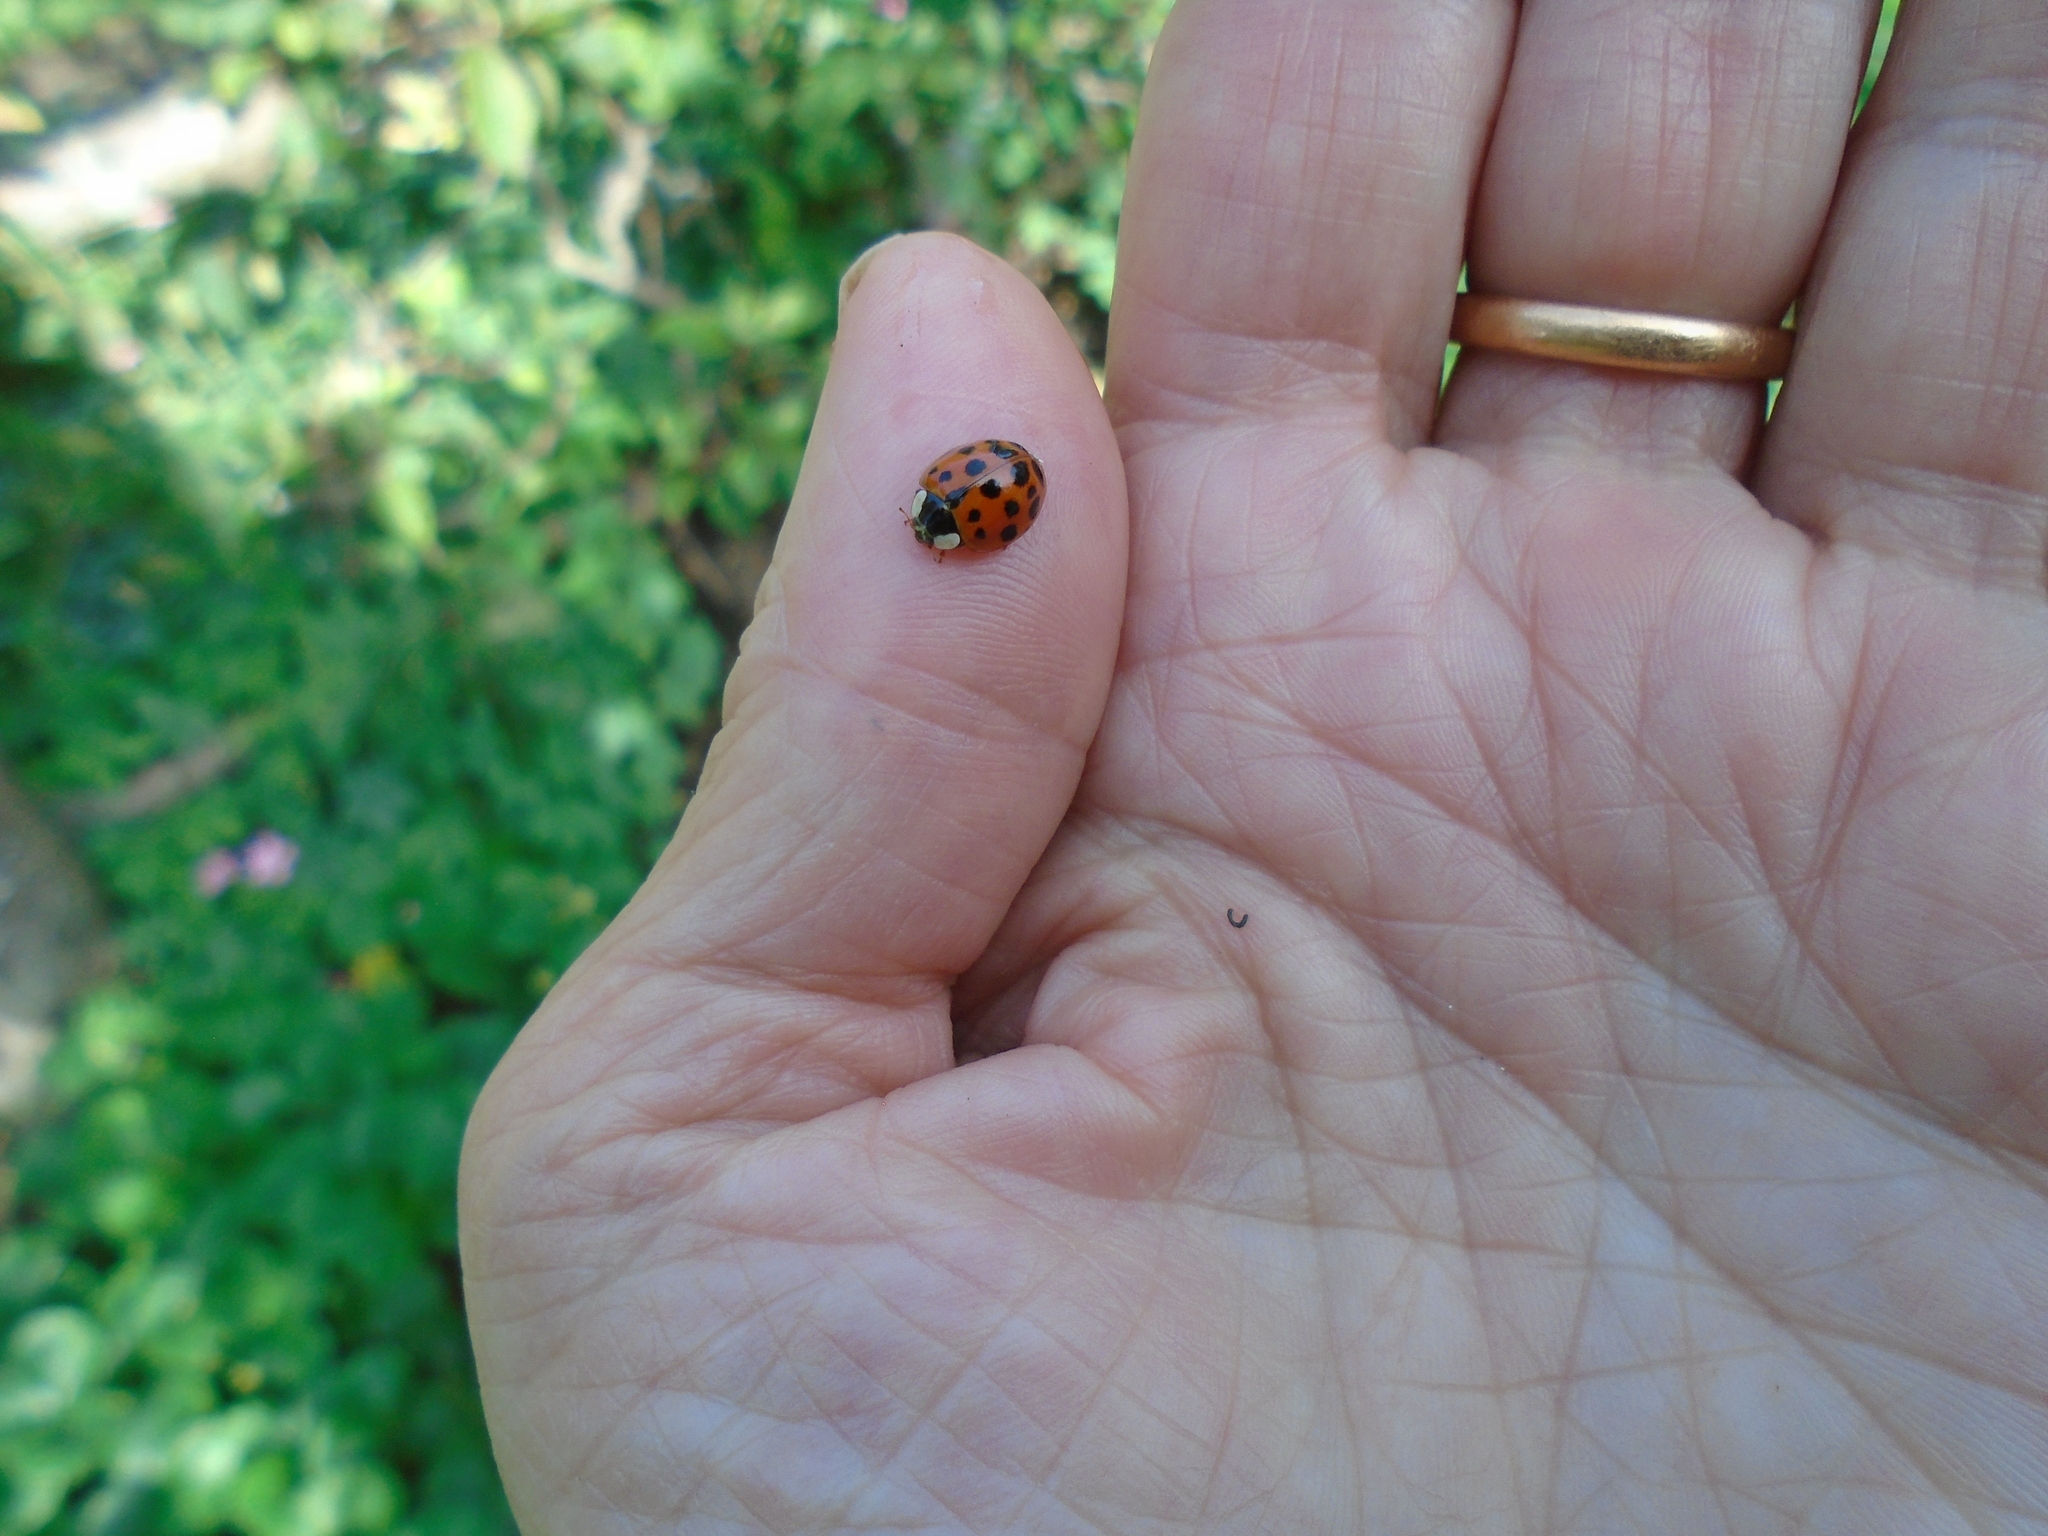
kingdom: Animalia
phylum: Arthropoda
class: Insecta
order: Coleoptera
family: Coccinellidae
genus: Harmonia
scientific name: Harmonia axyridis
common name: Harlequin ladybird
